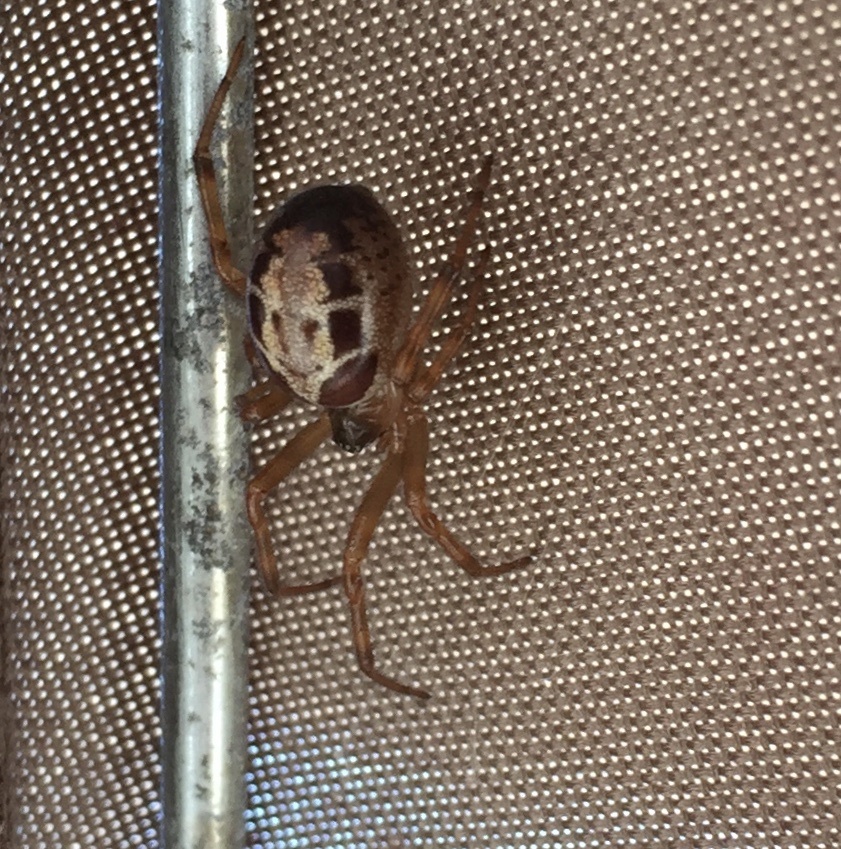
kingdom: Animalia
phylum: Arthropoda
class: Arachnida
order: Araneae
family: Theridiidae
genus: Steatoda
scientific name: Steatoda nobilis
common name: Cobweb weaver
